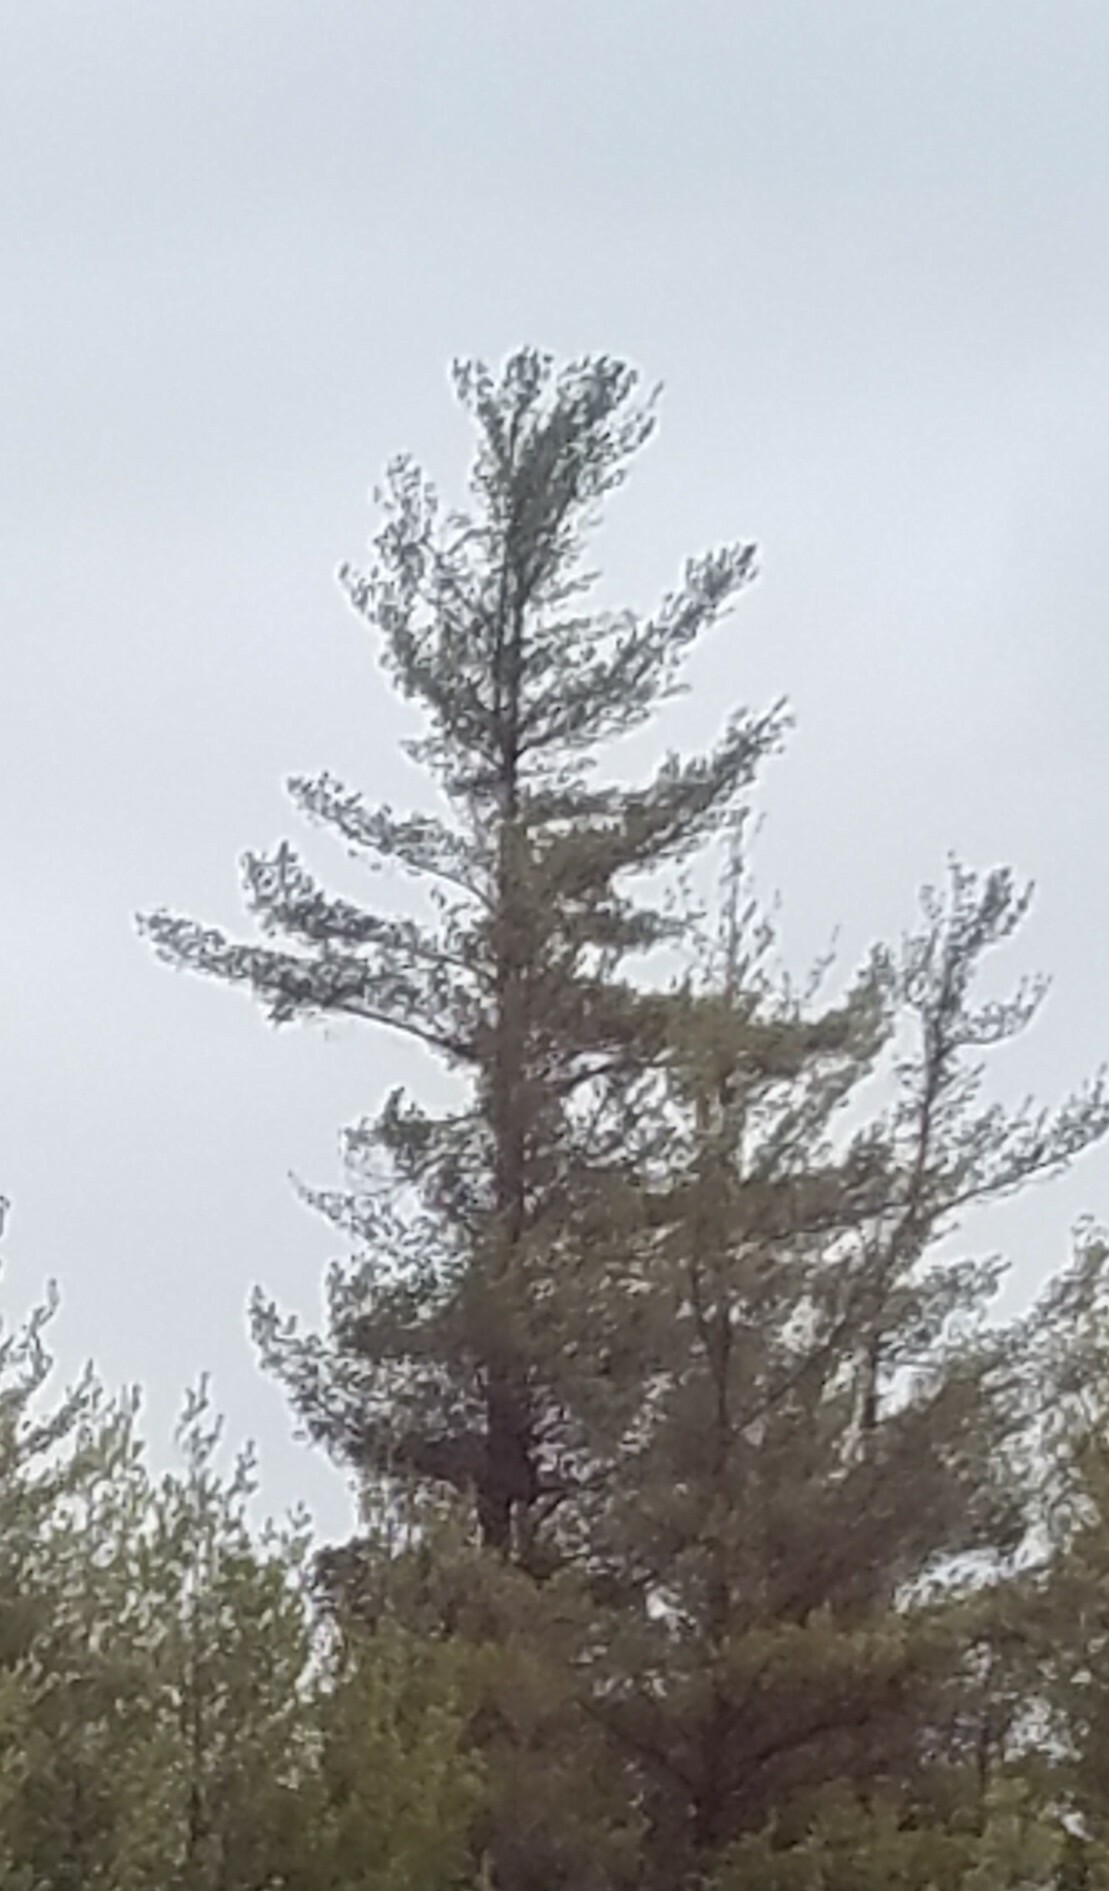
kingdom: Plantae
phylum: Tracheophyta
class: Pinopsida
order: Pinales
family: Pinaceae
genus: Pinus
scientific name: Pinus strobus
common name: Weymouth pine
